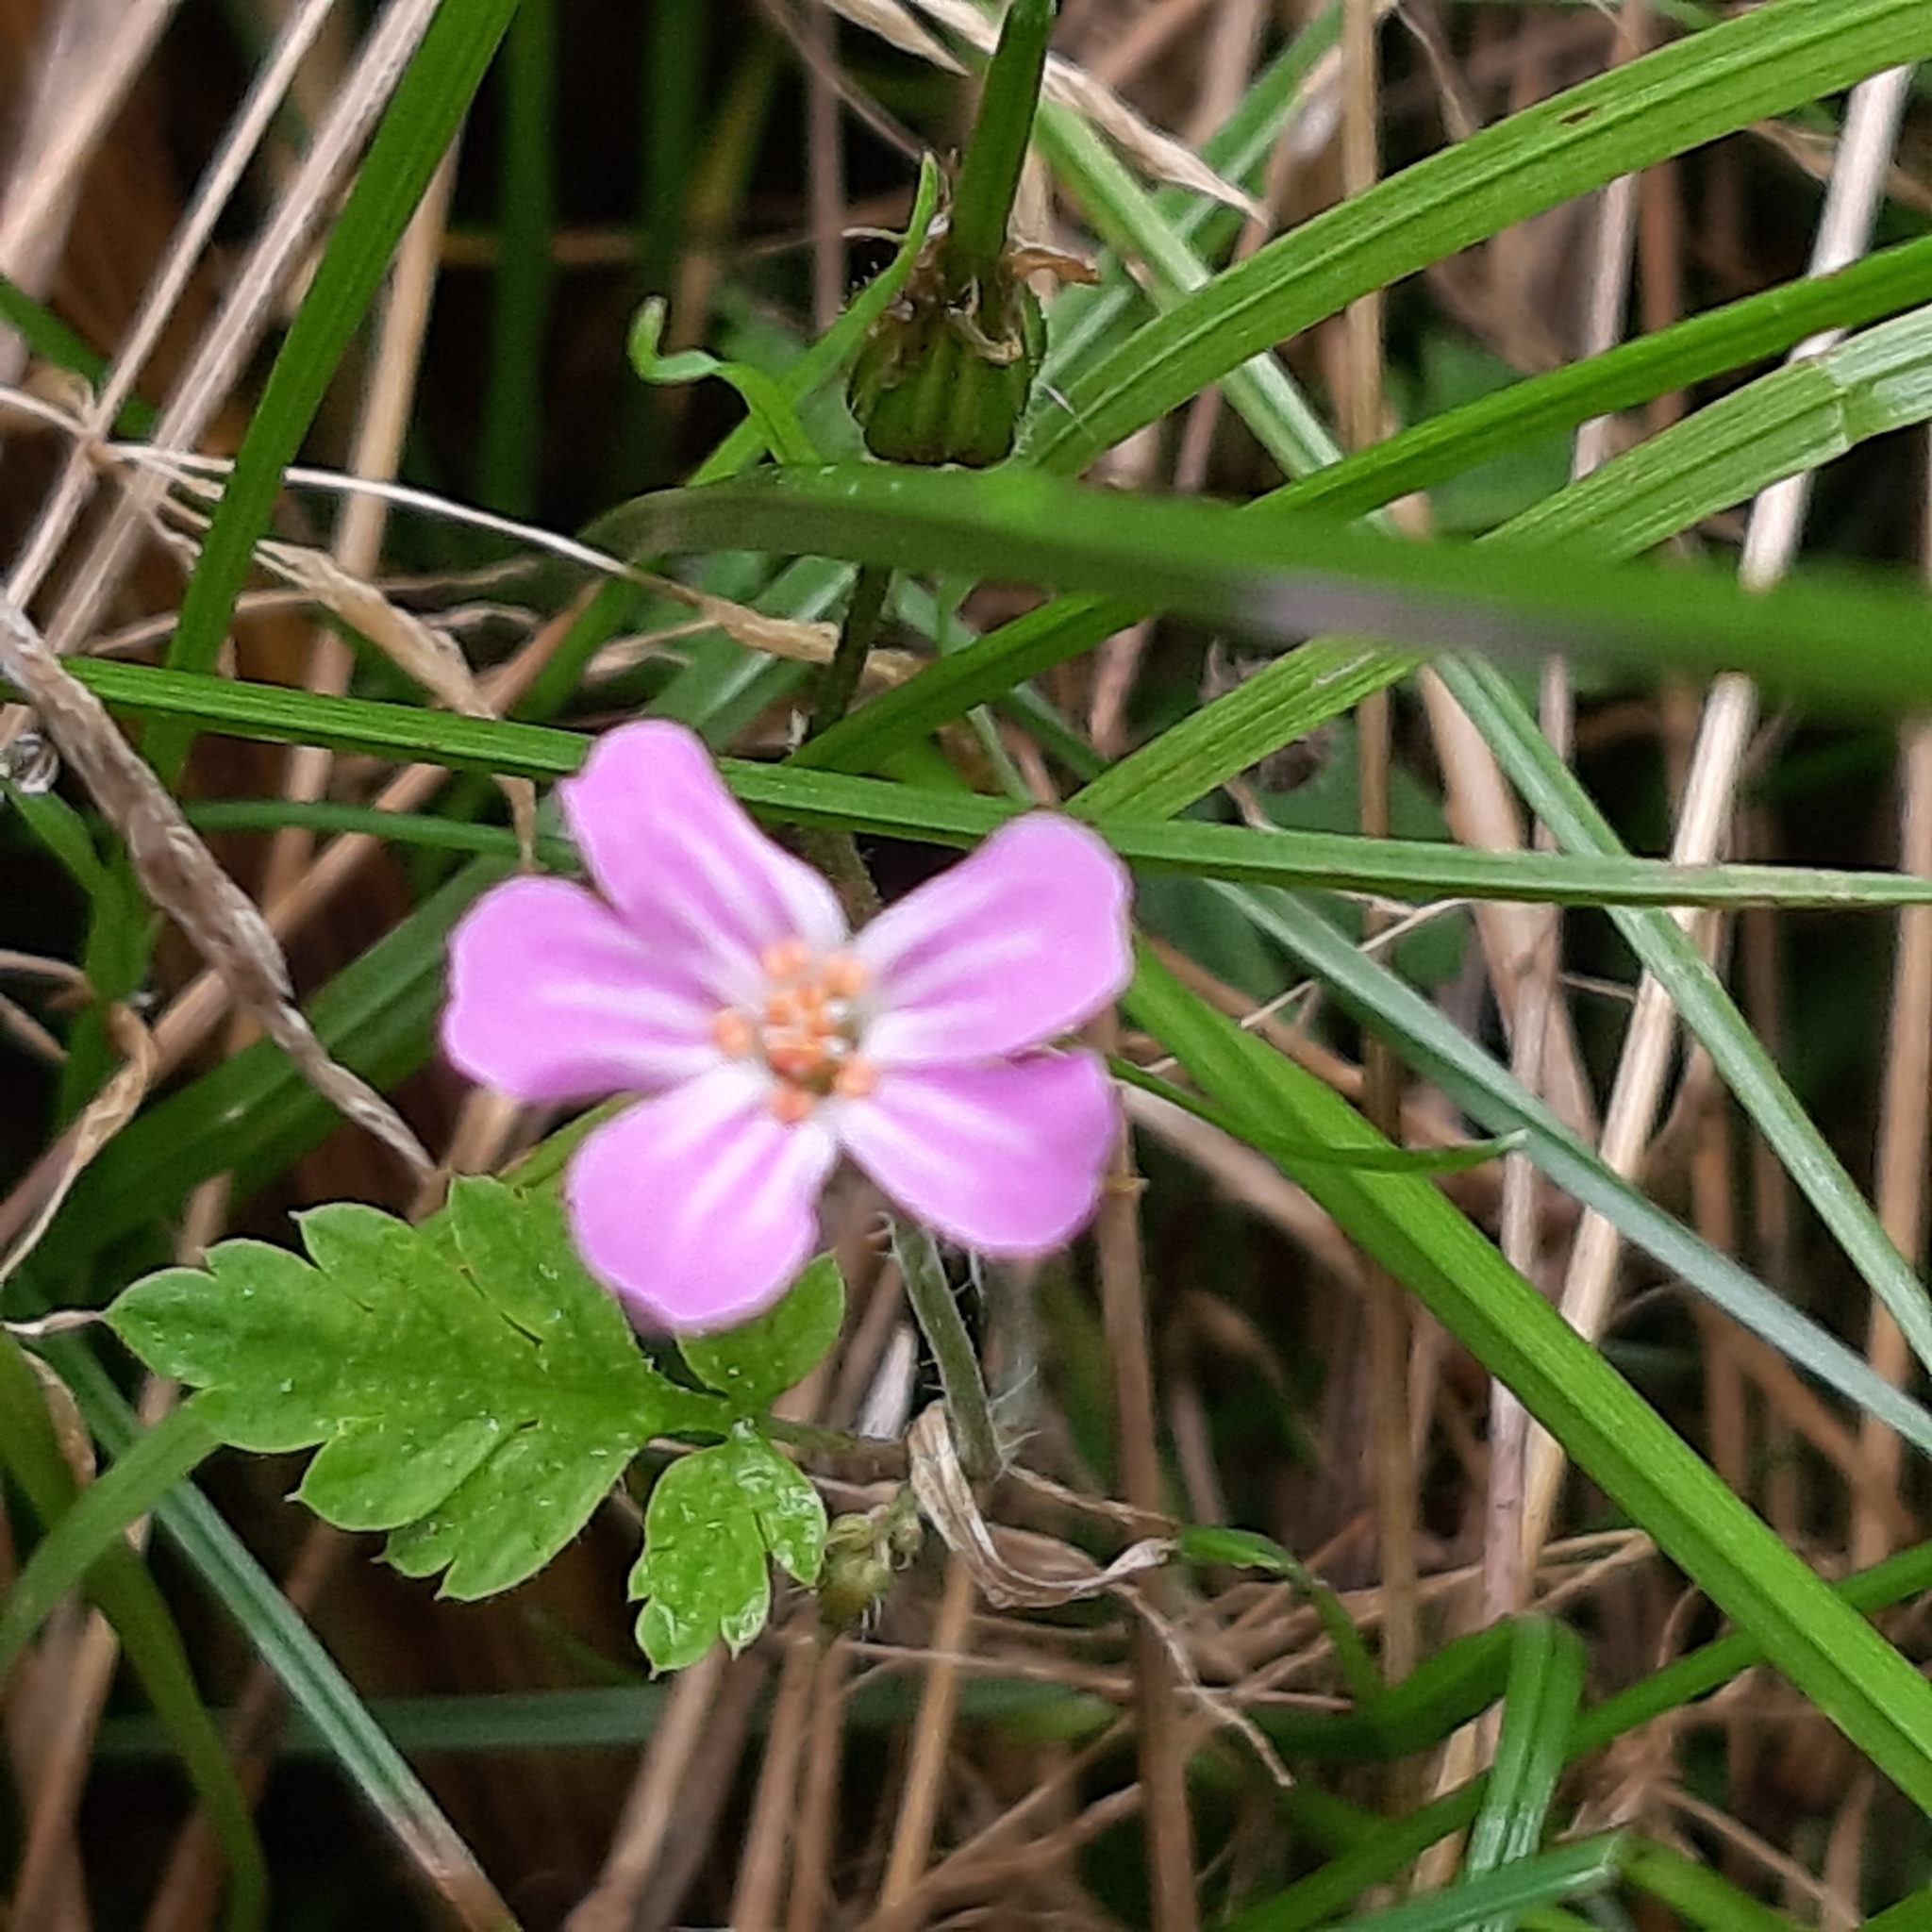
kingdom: Plantae
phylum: Tracheophyta
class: Magnoliopsida
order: Geraniales
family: Geraniaceae
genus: Geranium
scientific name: Geranium robertianum
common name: Herb-robert
